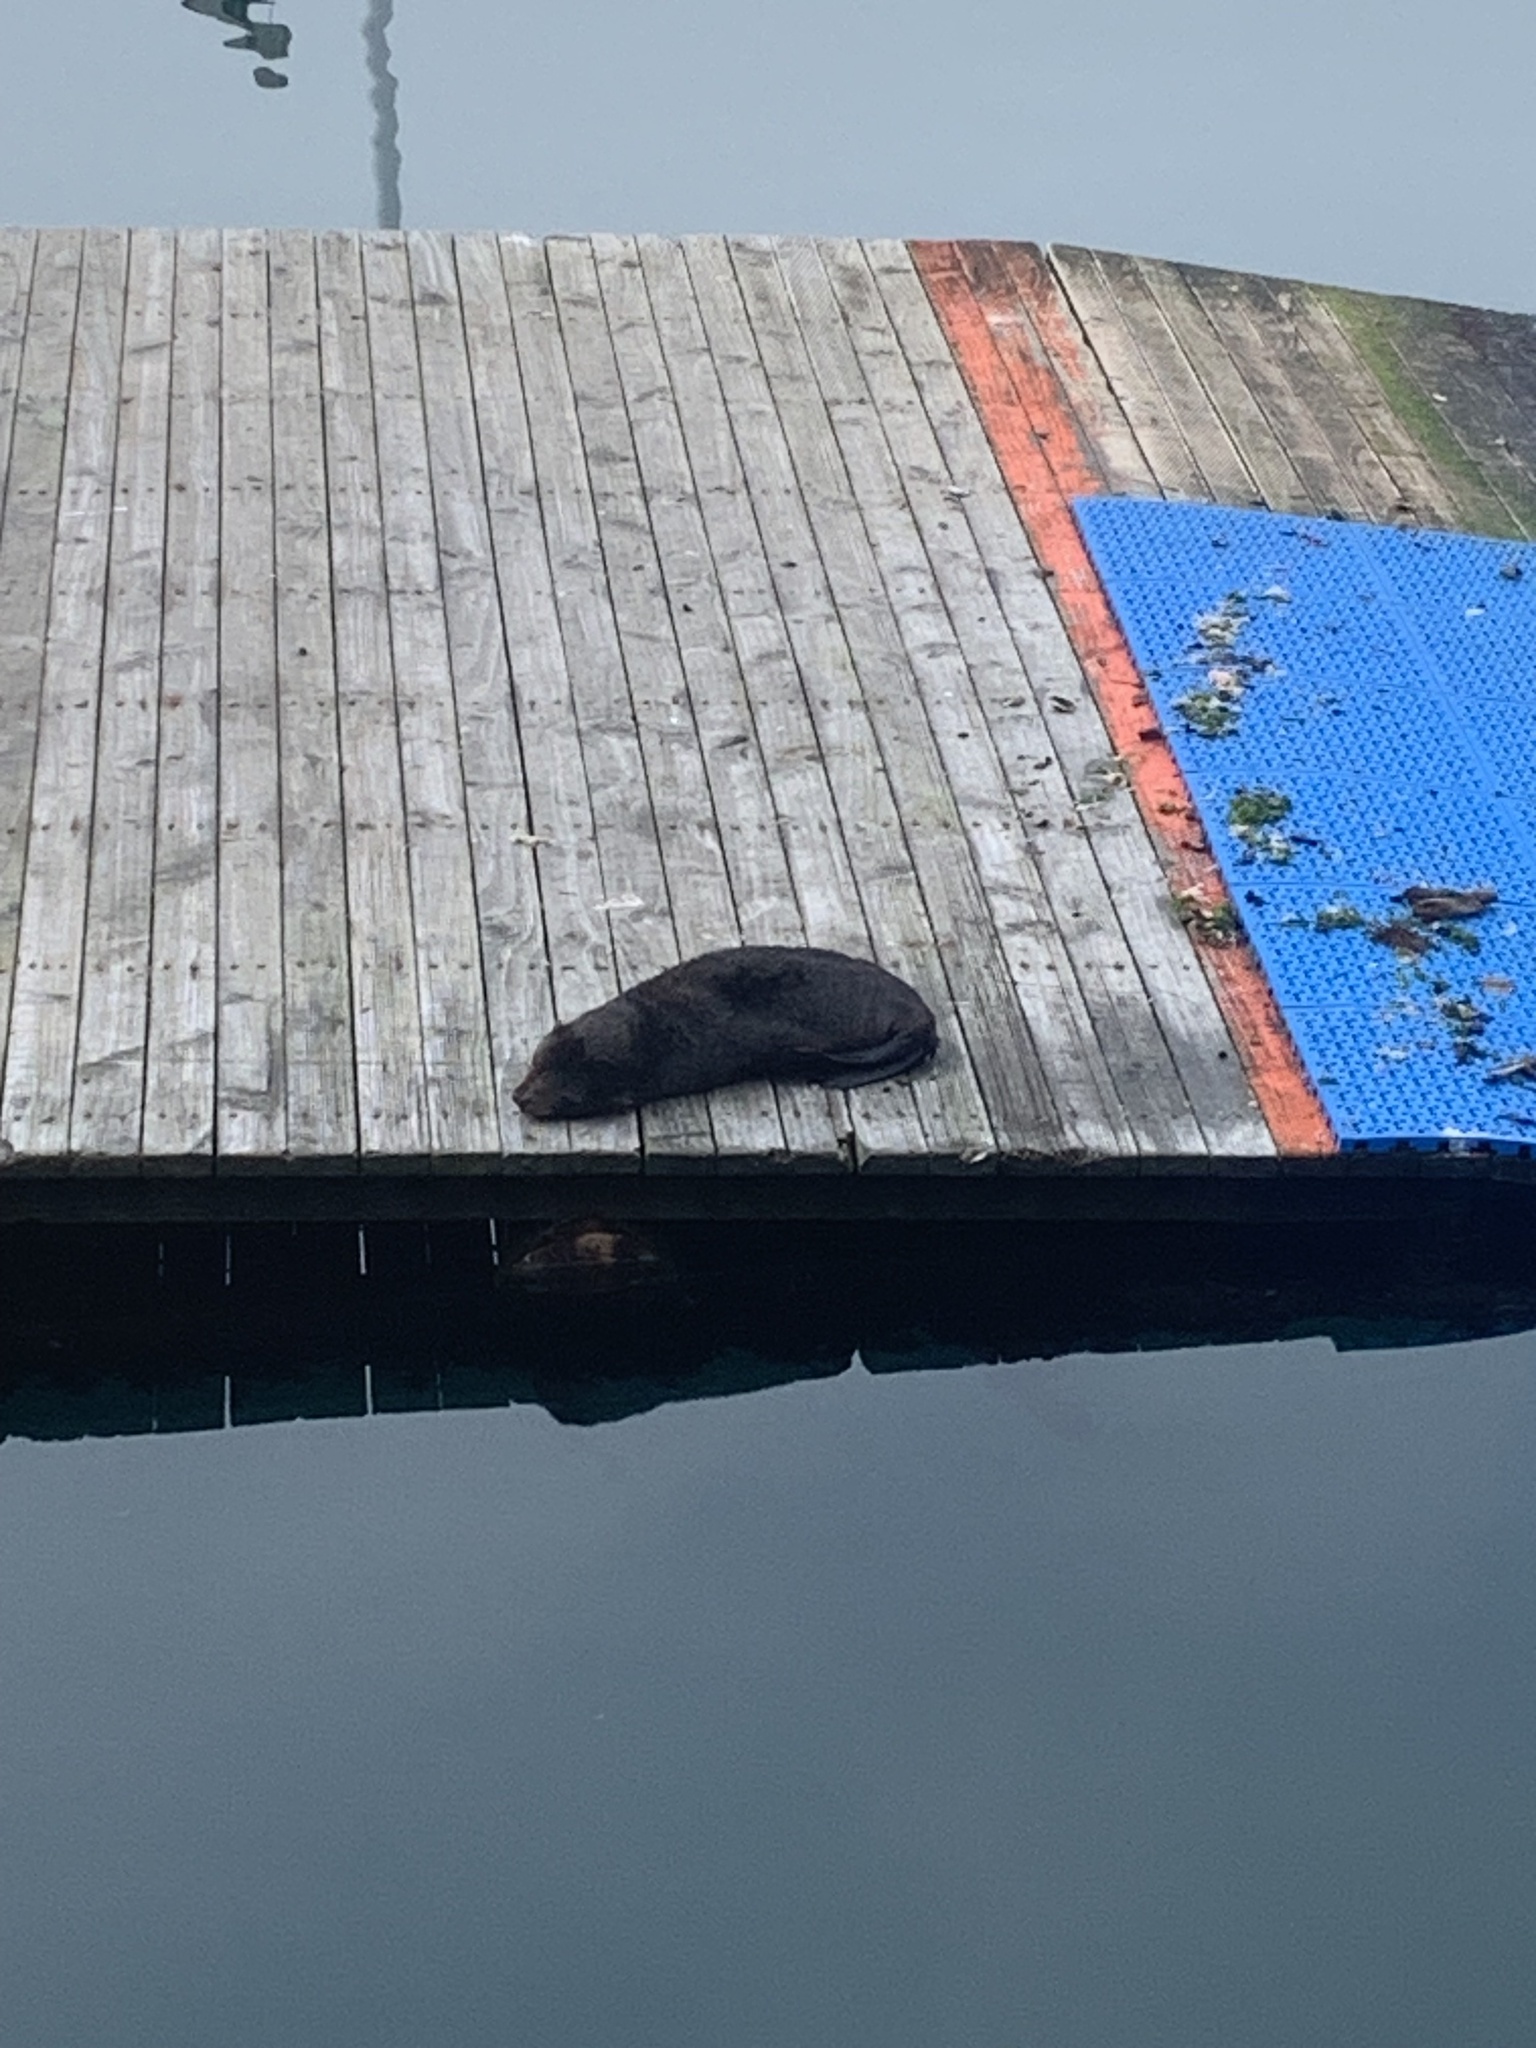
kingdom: Animalia
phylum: Chordata
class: Mammalia
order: Carnivora
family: Otariidae
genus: Arctocephalus
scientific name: Arctocephalus forsteri
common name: New zealand fur seal
